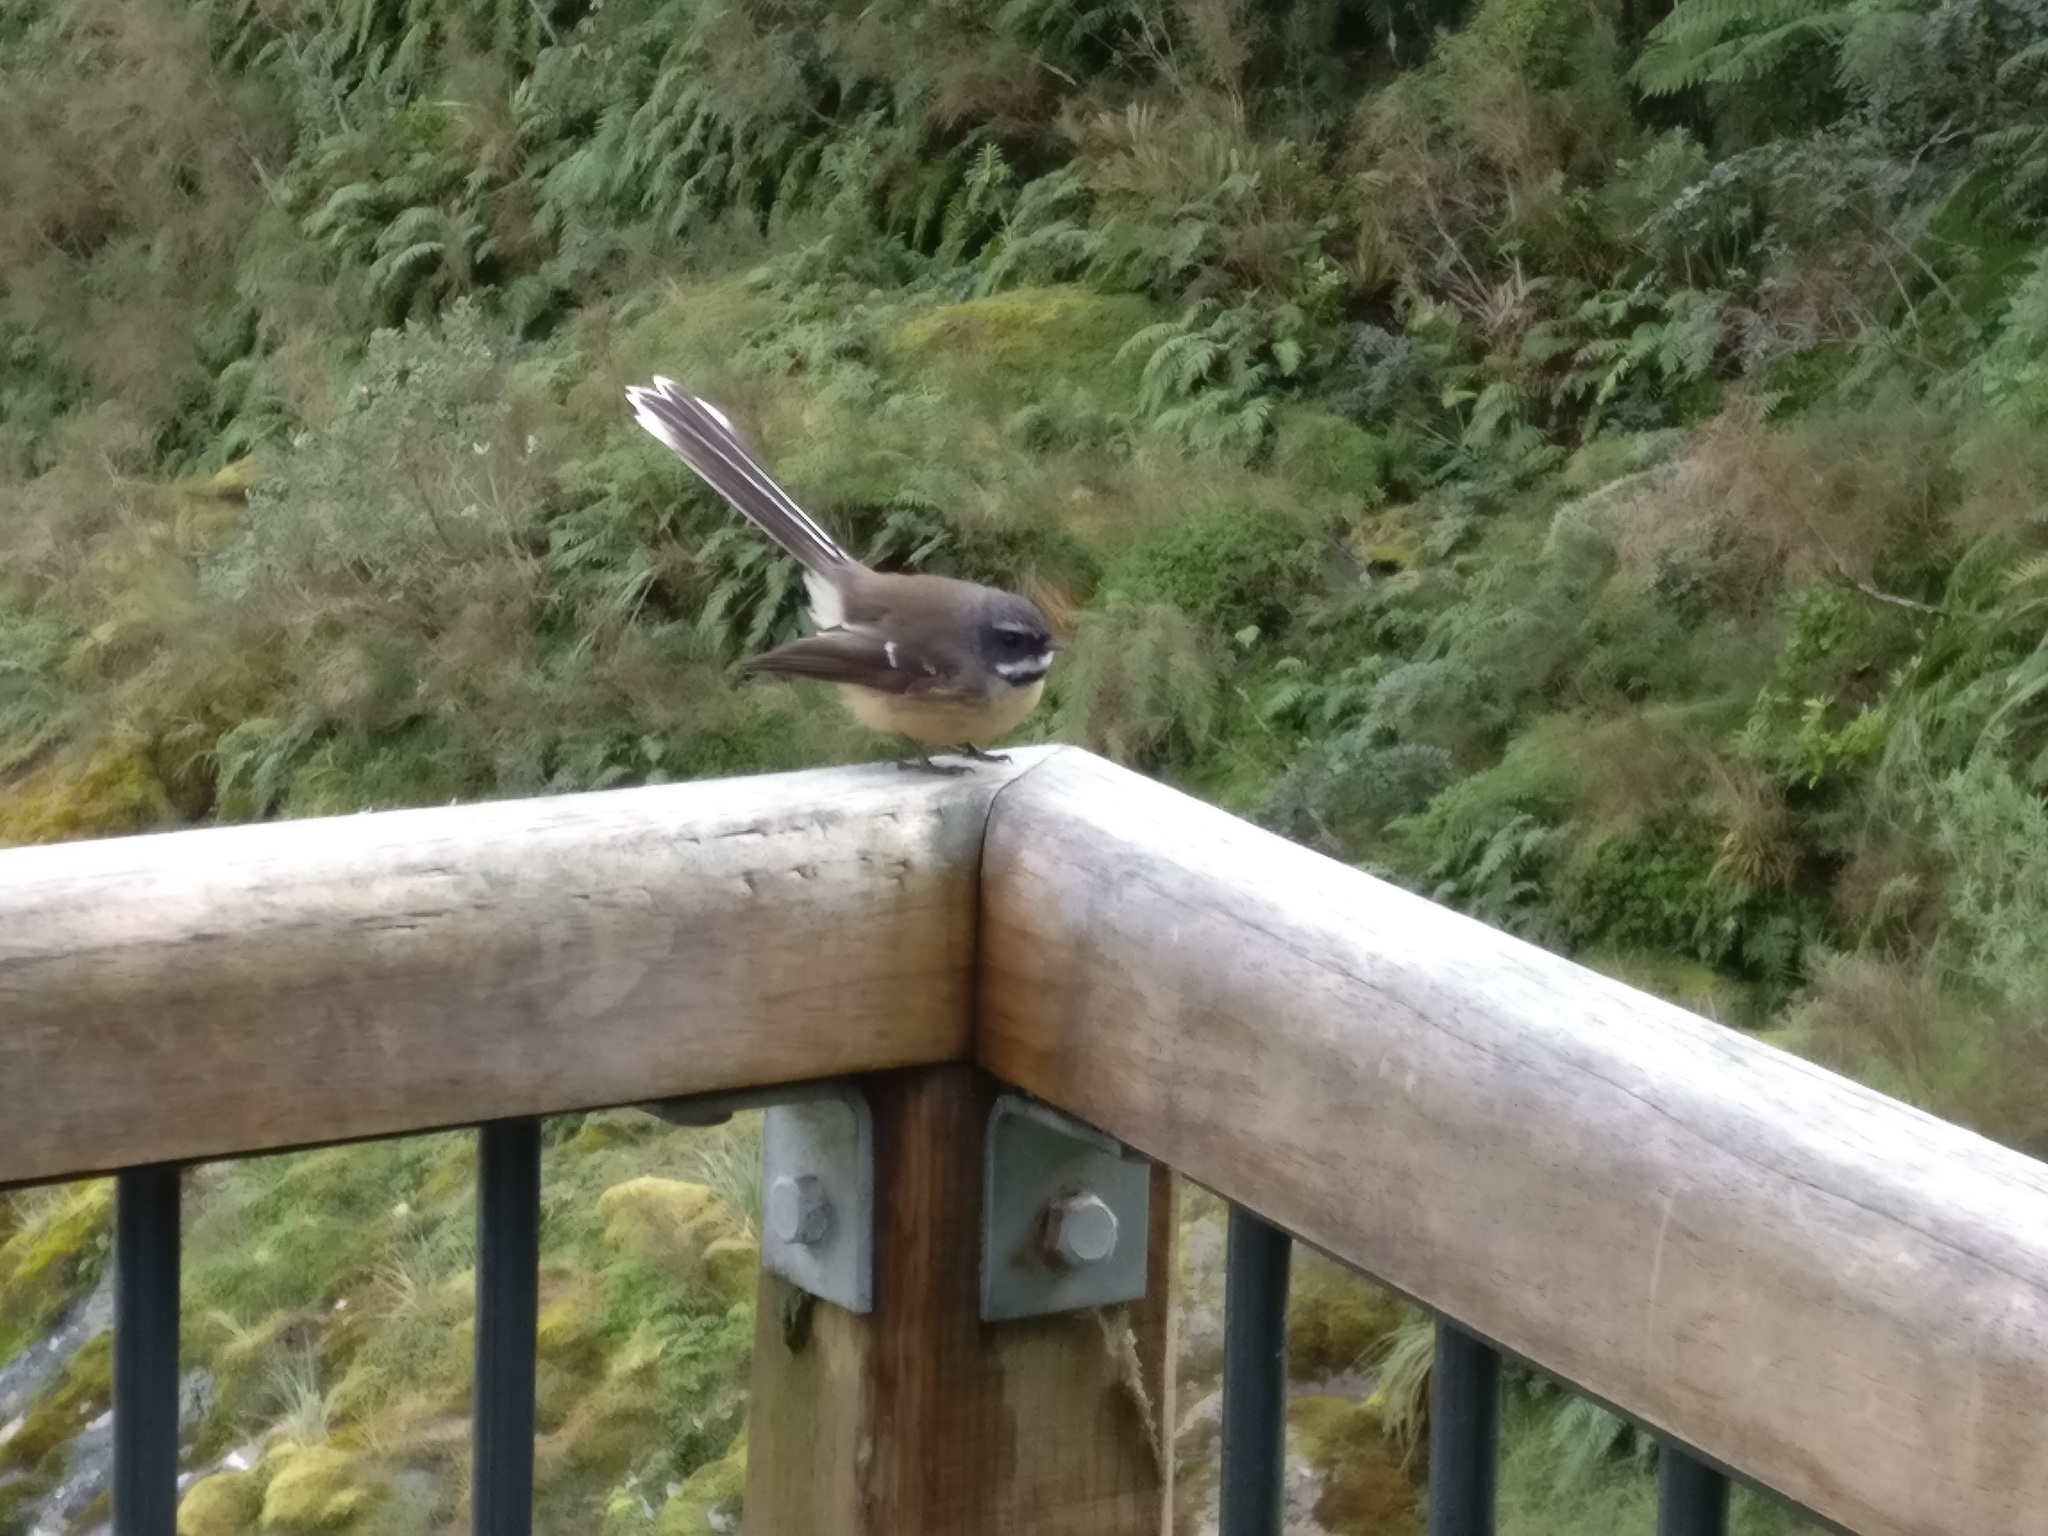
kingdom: Animalia
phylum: Chordata
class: Aves
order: Passeriformes
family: Rhipiduridae
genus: Rhipidura
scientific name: Rhipidura fuliginosa
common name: New zealand fantail
